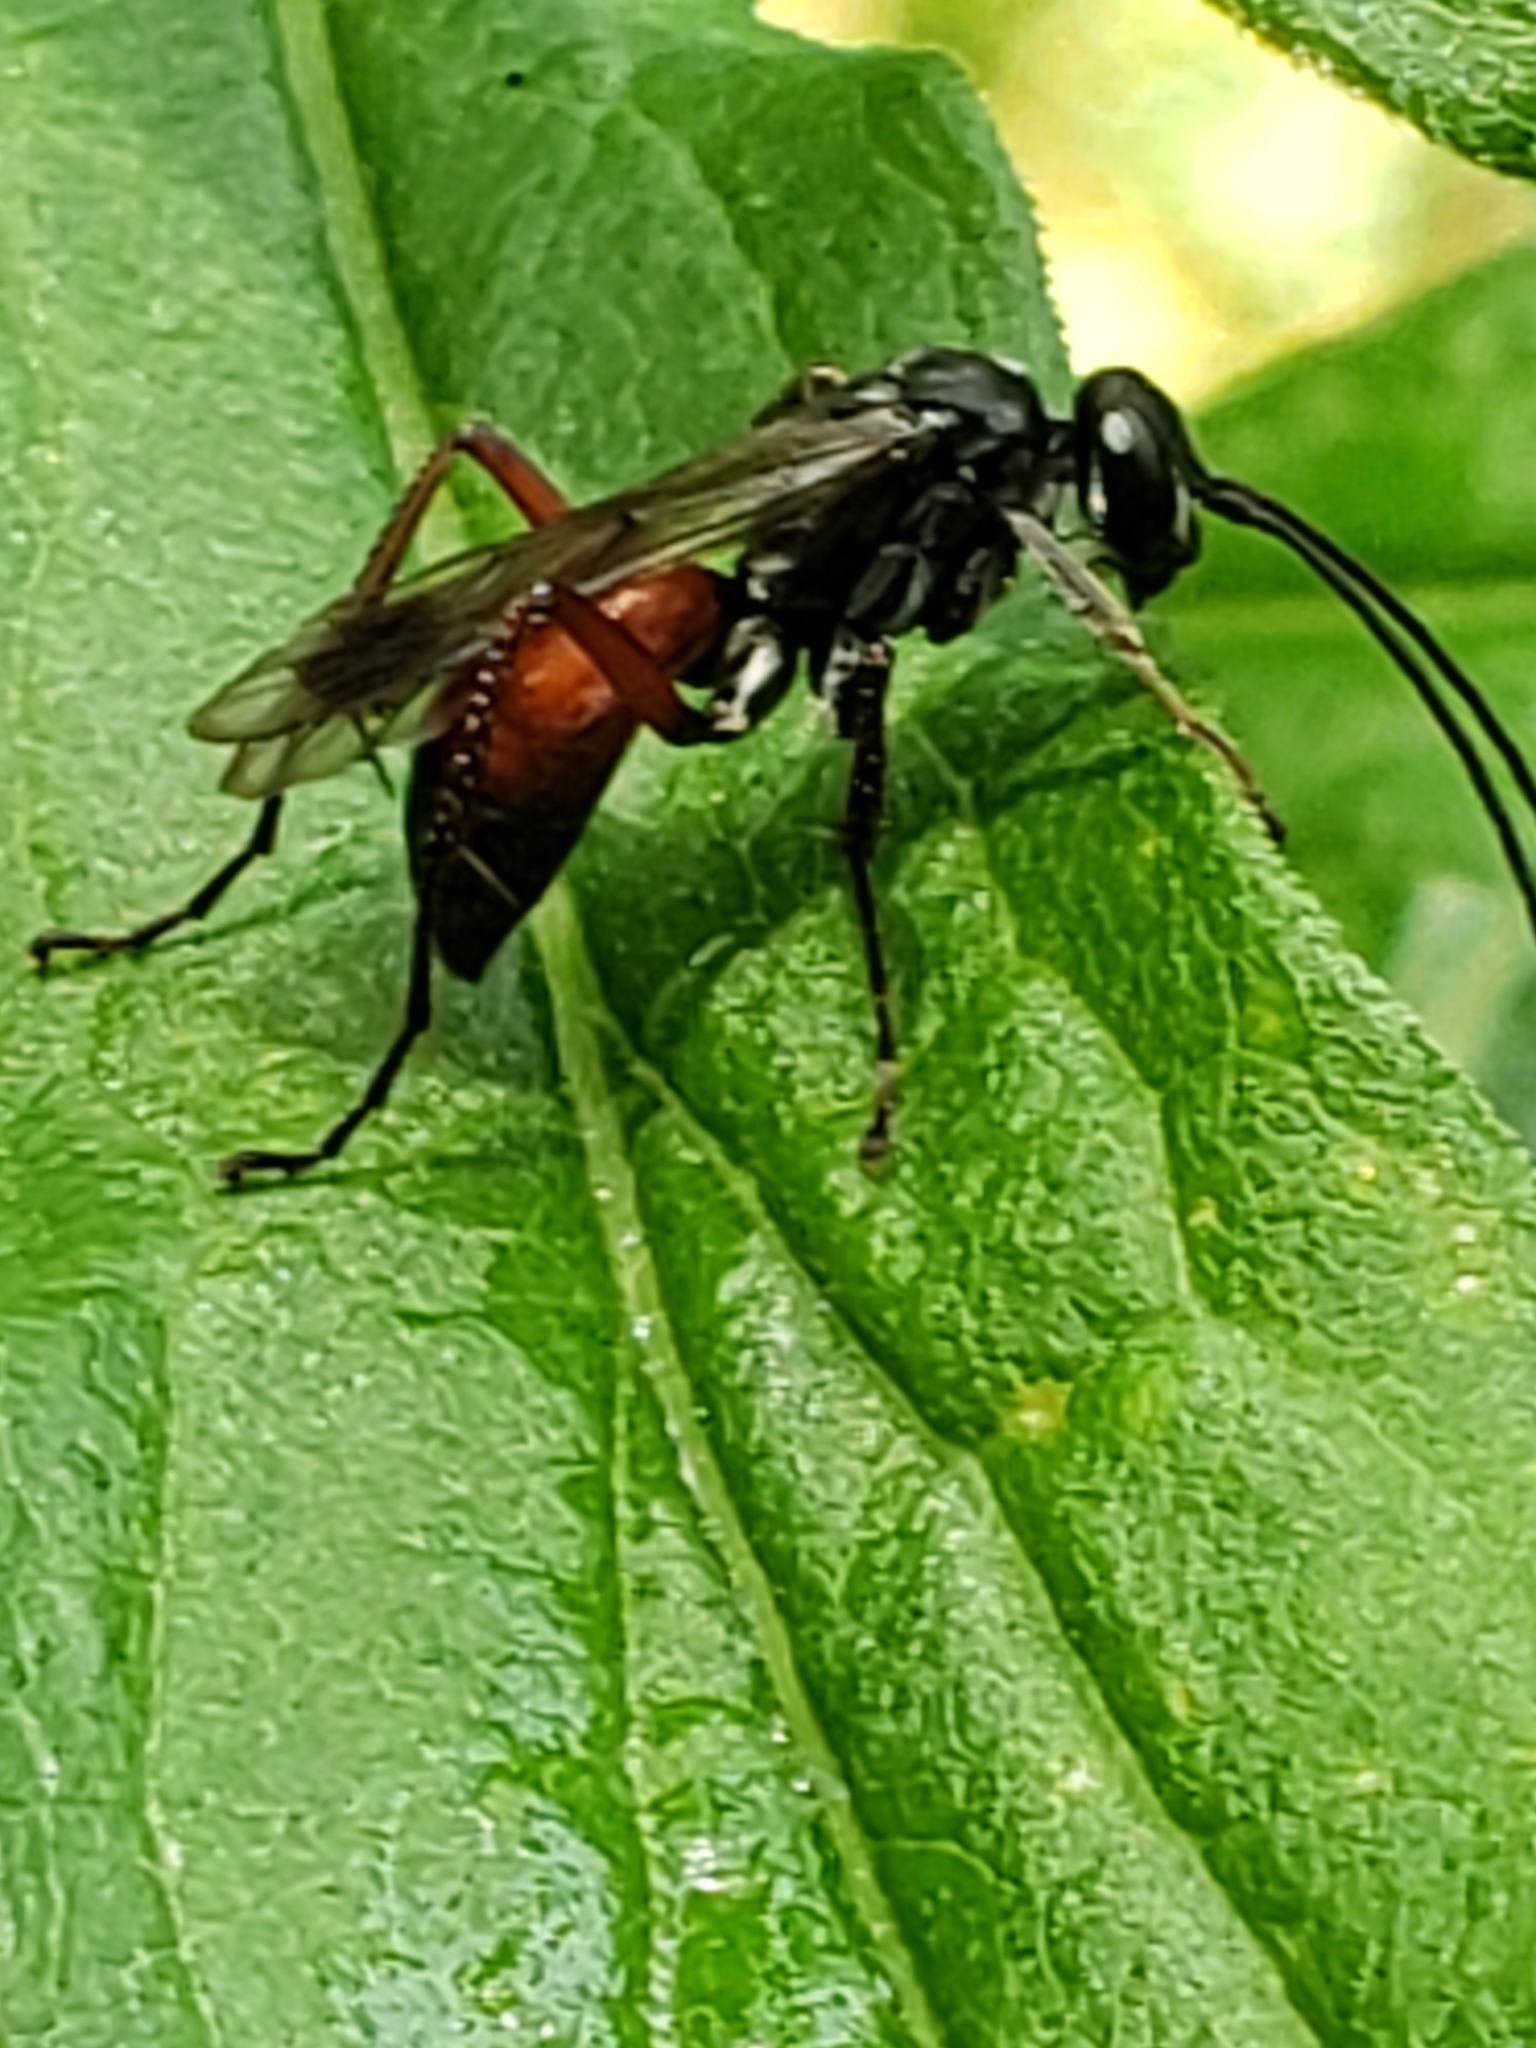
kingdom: Animalia
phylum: Arthropoda
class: Insecta
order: Hymenoptera
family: Pompilidae
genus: Caliadurgus
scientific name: Caliadurgus fasciatellus
